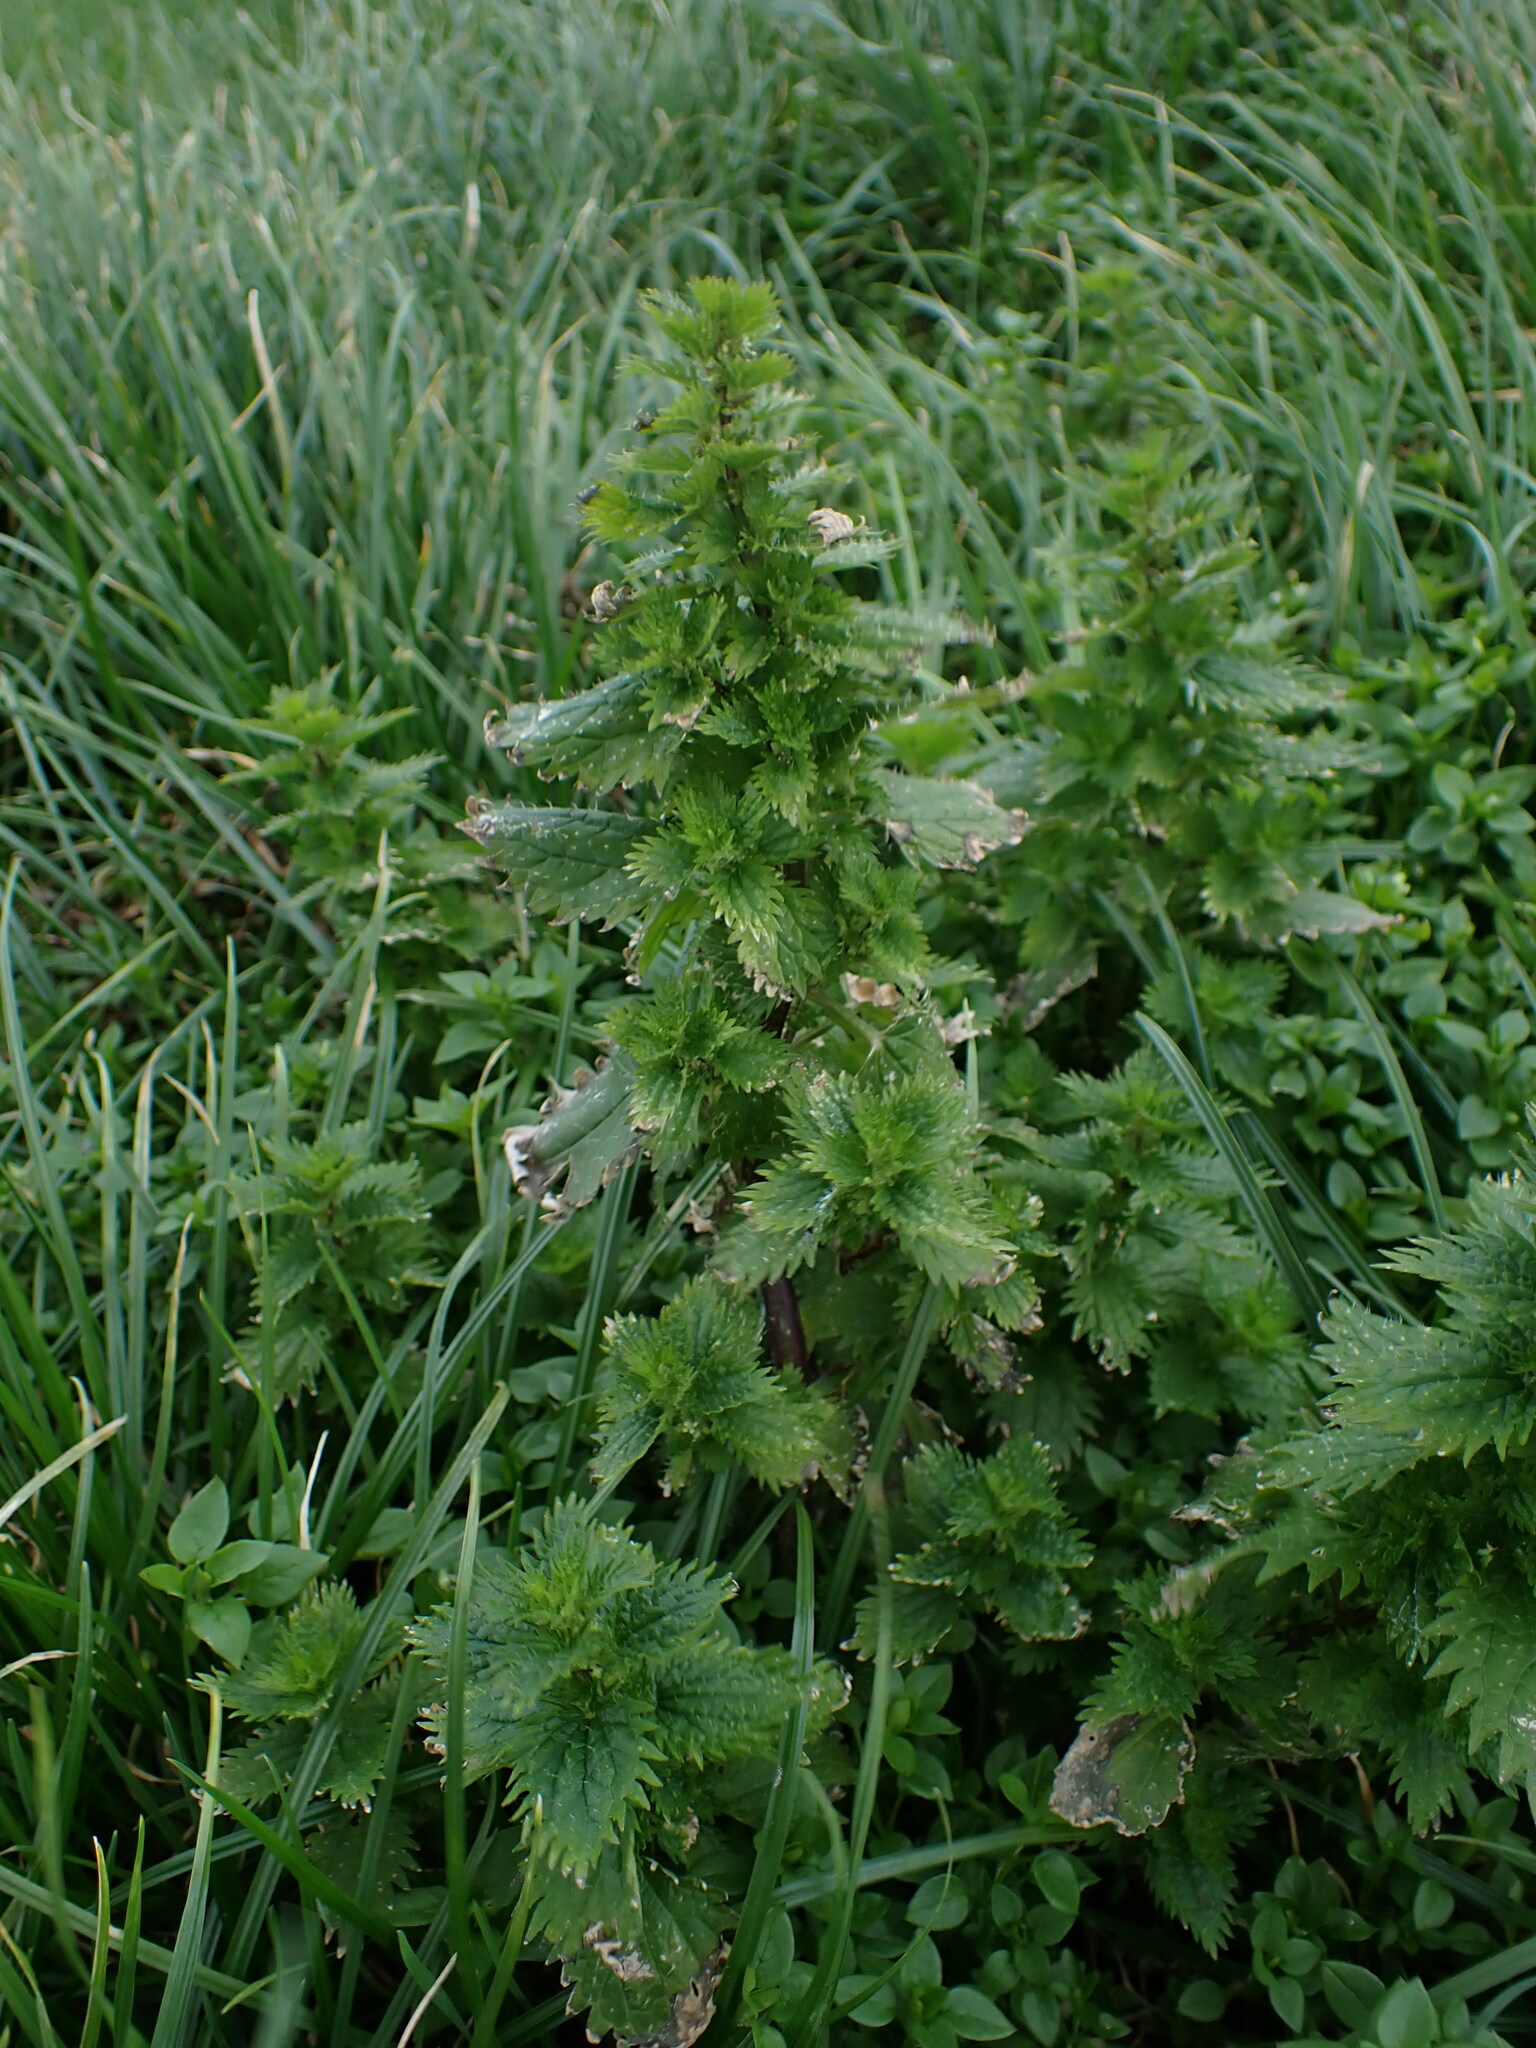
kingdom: Plantae
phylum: Tracheophyta
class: Magnoliopsida
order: Rosales
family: Urticaceae
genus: Urtica
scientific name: Urtica urens
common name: Dwarf nettle
